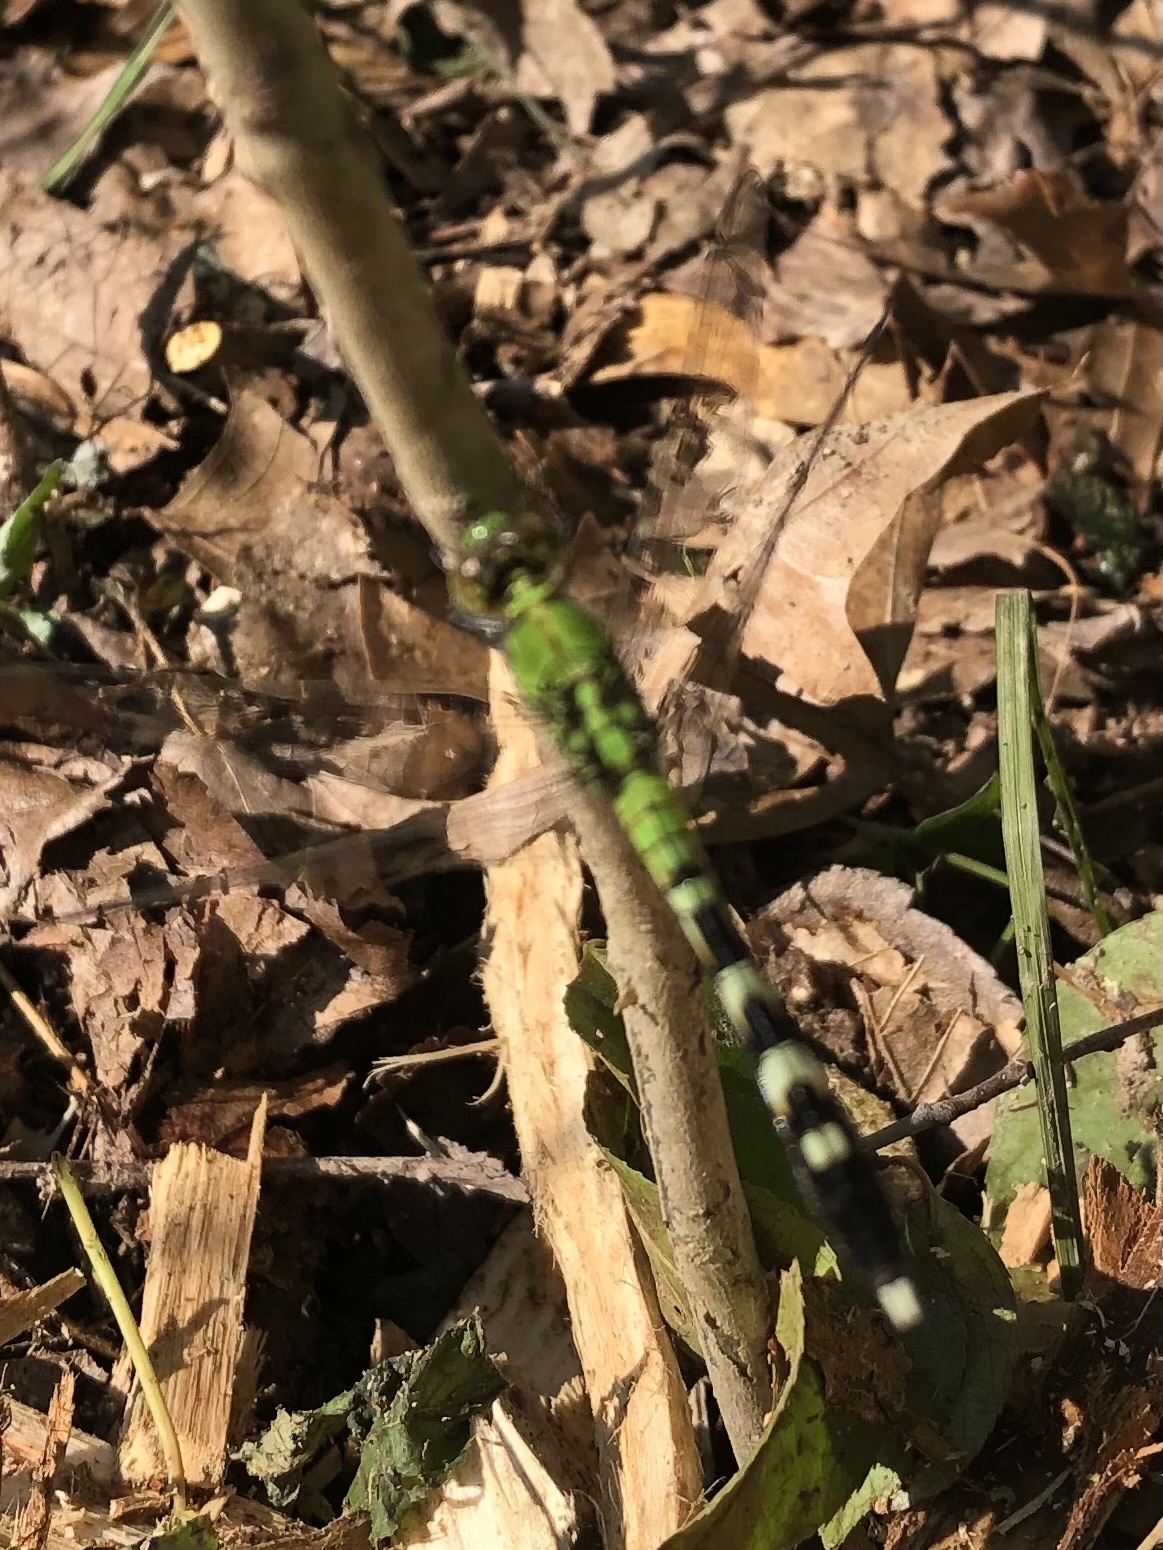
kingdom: Animalia
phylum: Arthropoda
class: Insecta
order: Odonata
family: Libellulidae
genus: Erythemis
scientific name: Erythemis simplicicollis
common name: Eastern pondhawk
